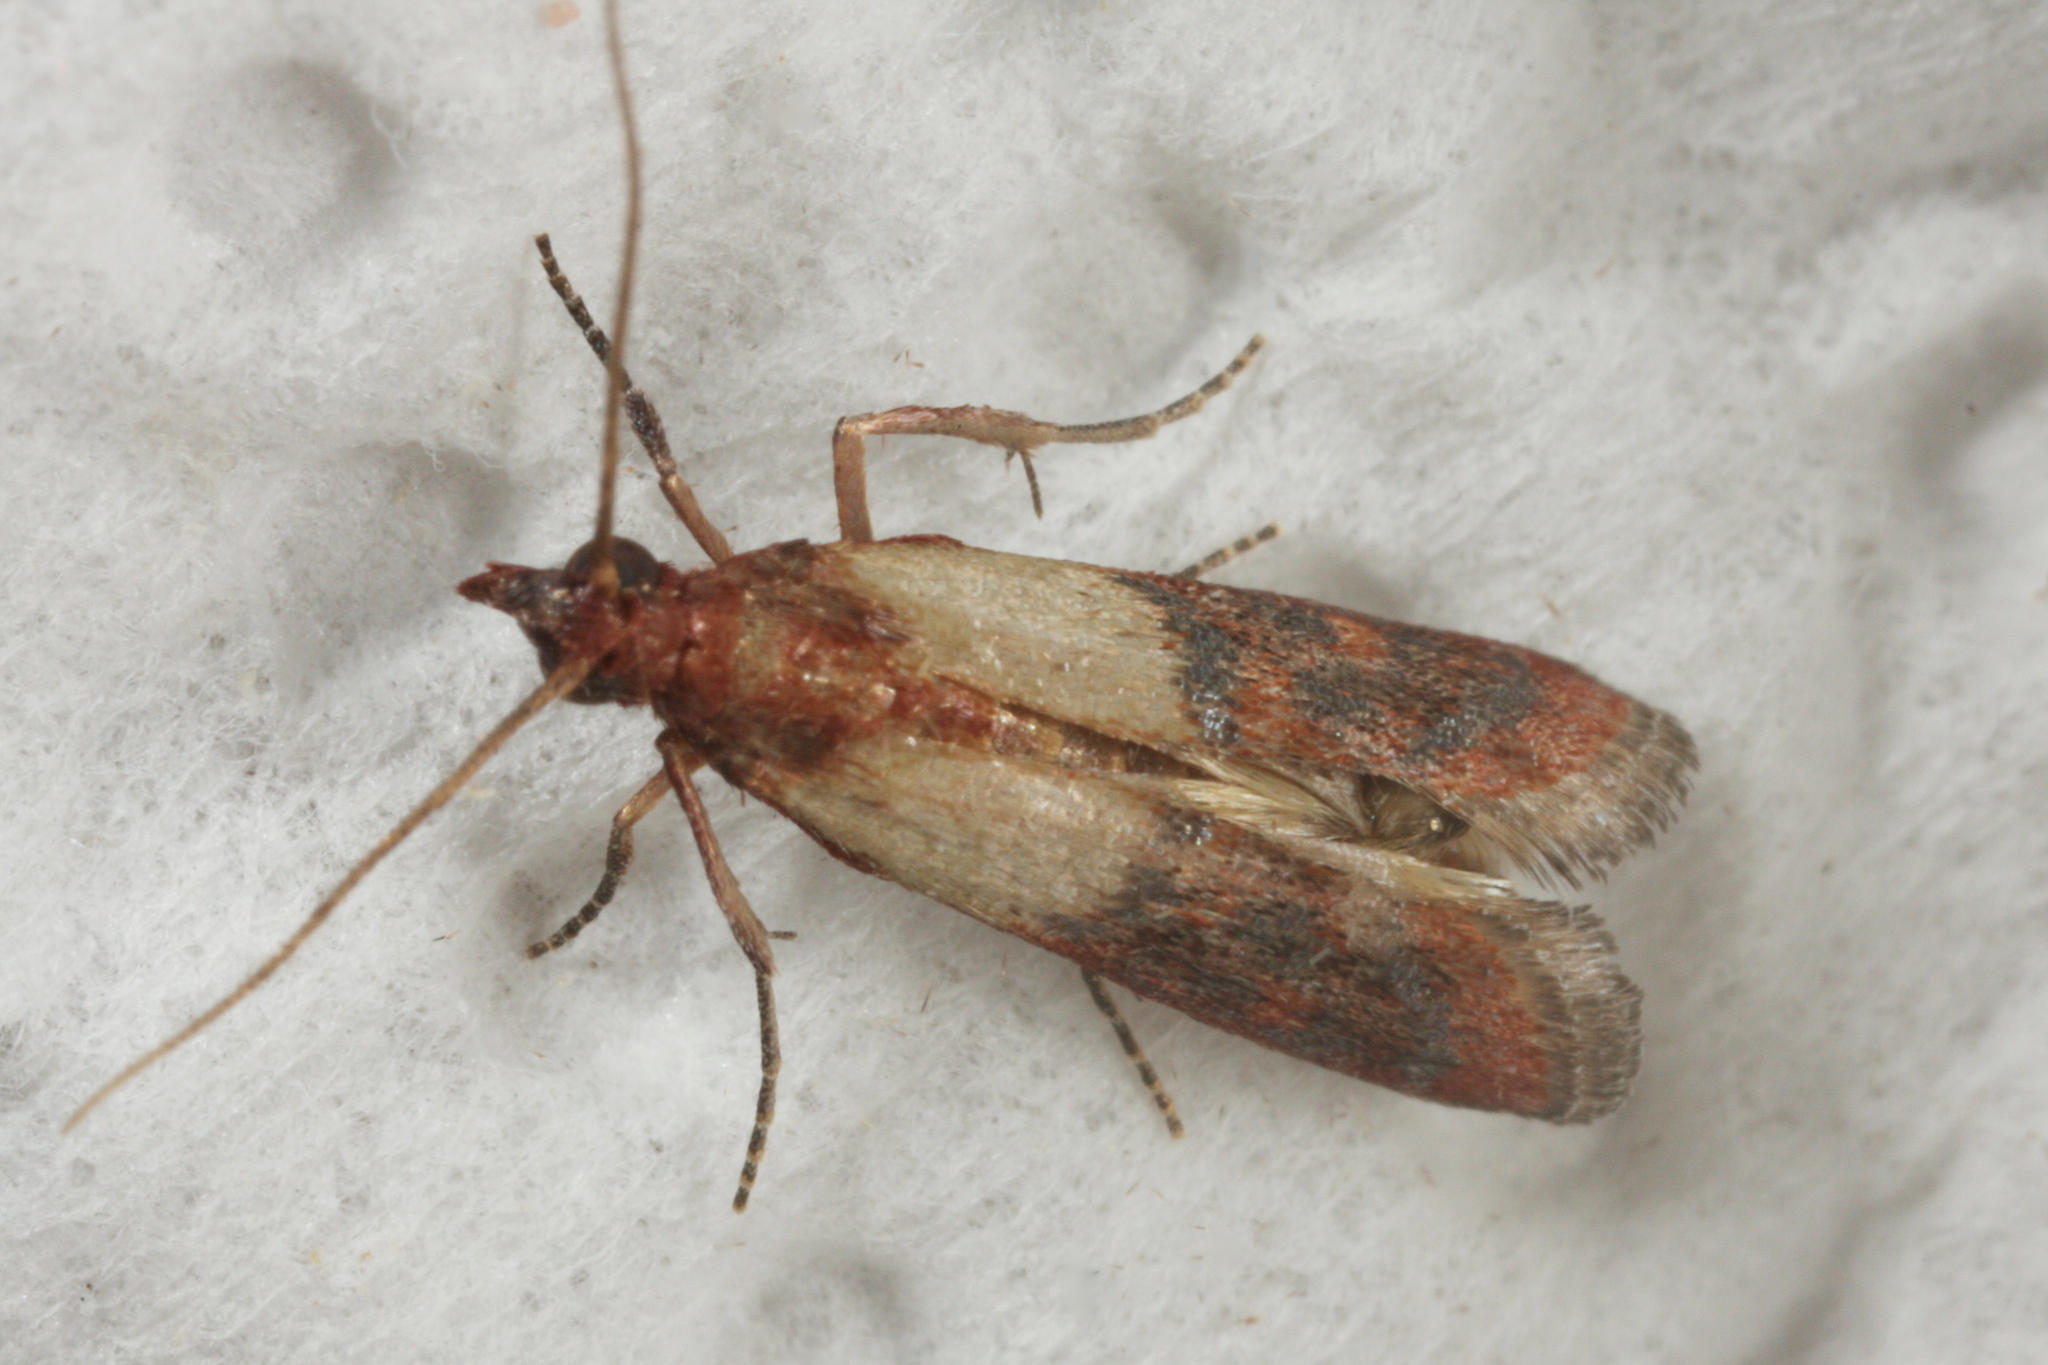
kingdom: Animalia
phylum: Arthropoda
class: Insecta
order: Lepidoptera
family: Pyralidae
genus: Plodia
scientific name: Plodia interpunctella
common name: Indian meal moth
